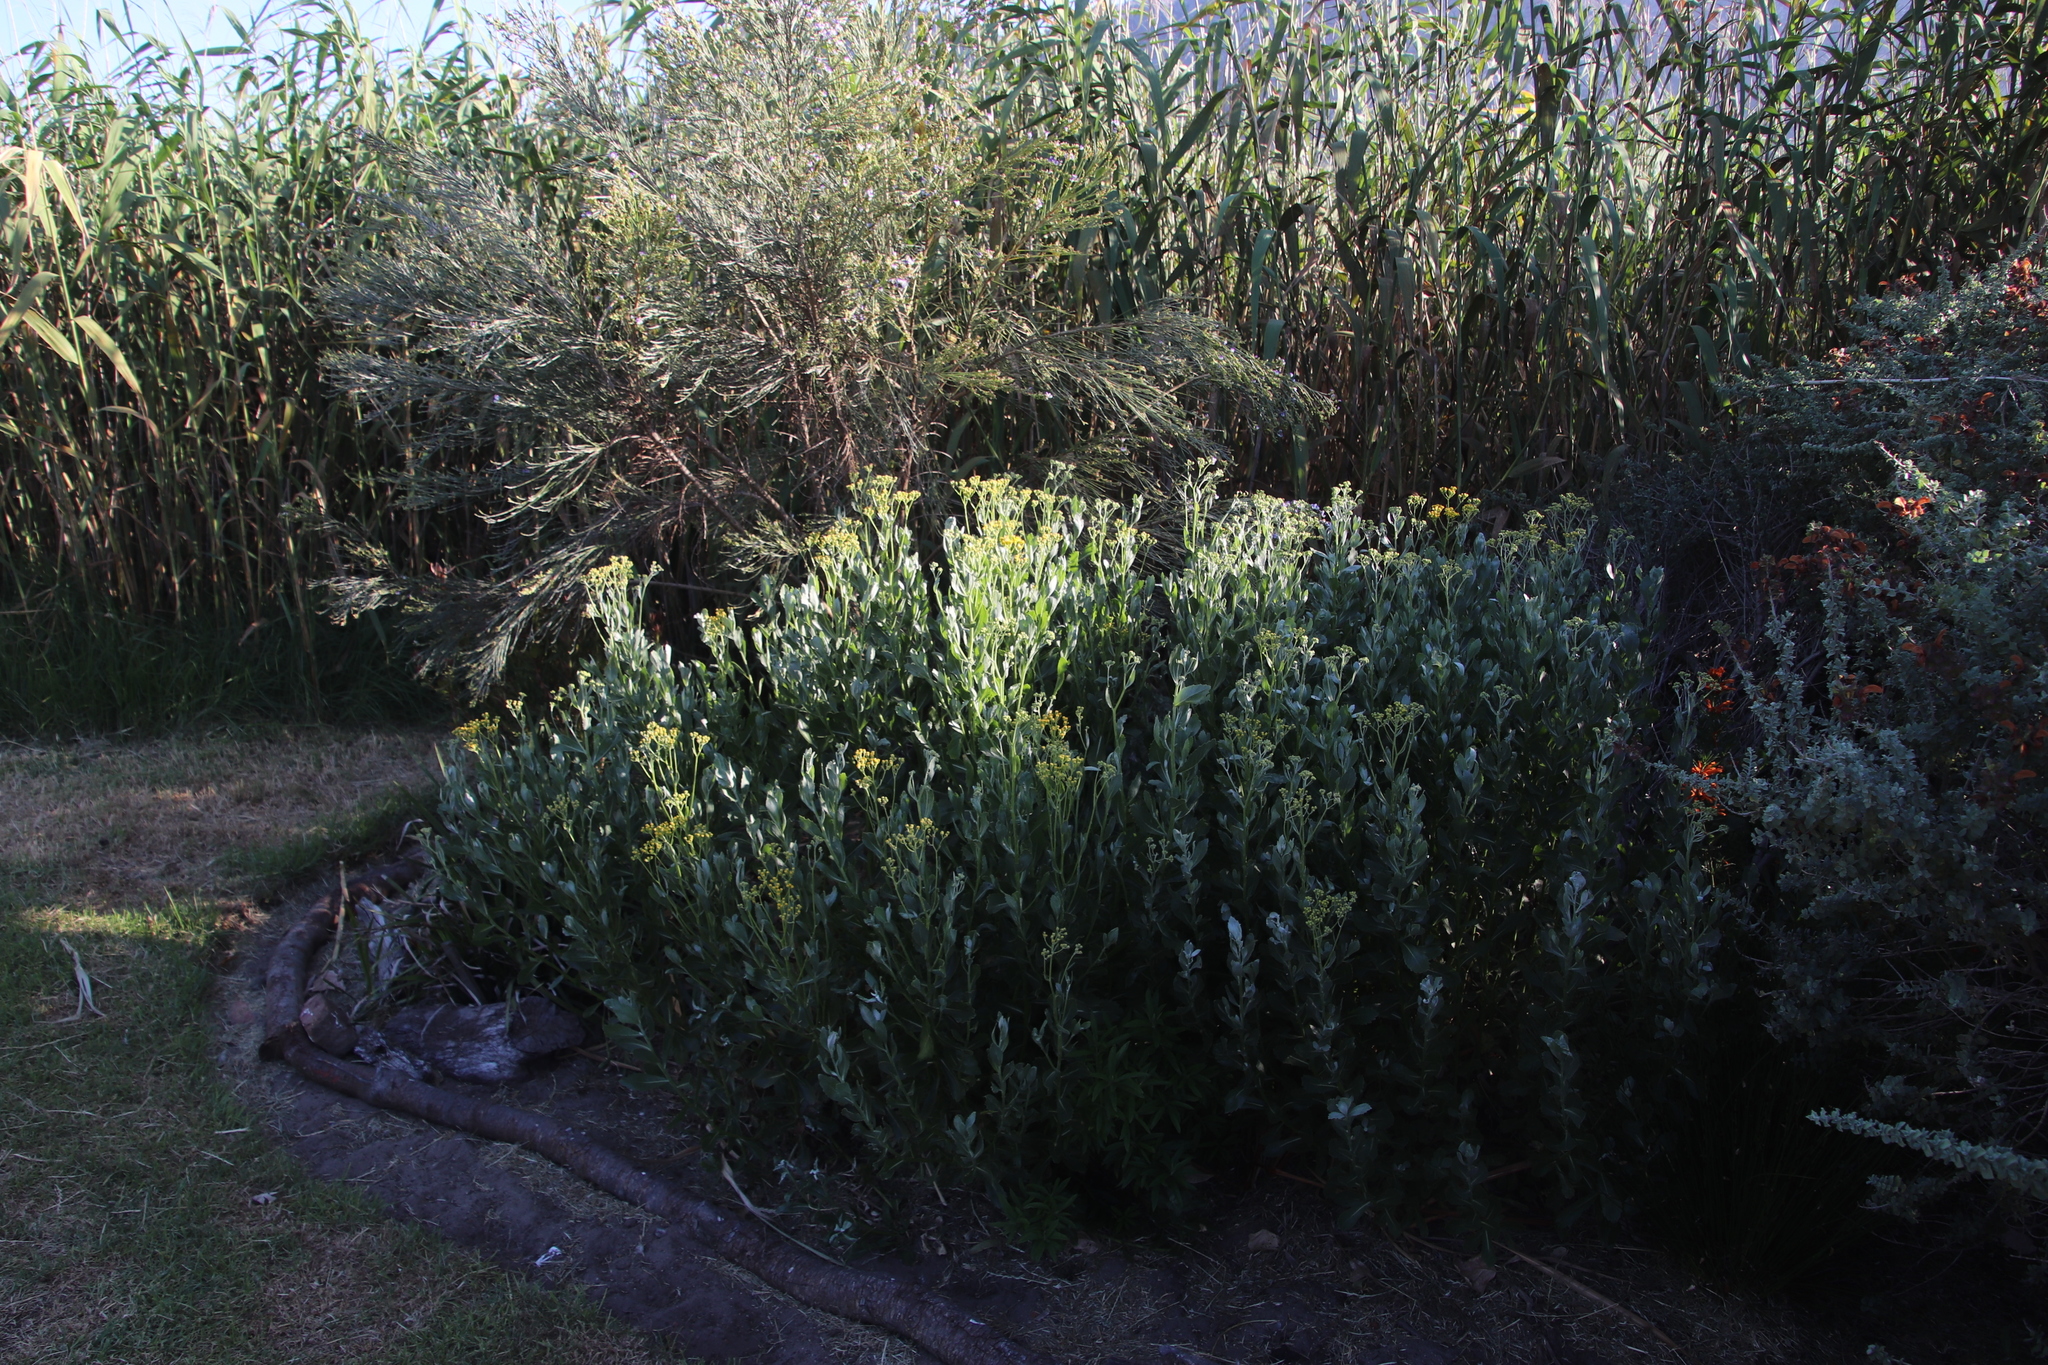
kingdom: Plantae
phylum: Tracheophyta
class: Magnoliopsida
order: Asterales
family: Asteraceae
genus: Senecio
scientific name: Senecio halimifolius
